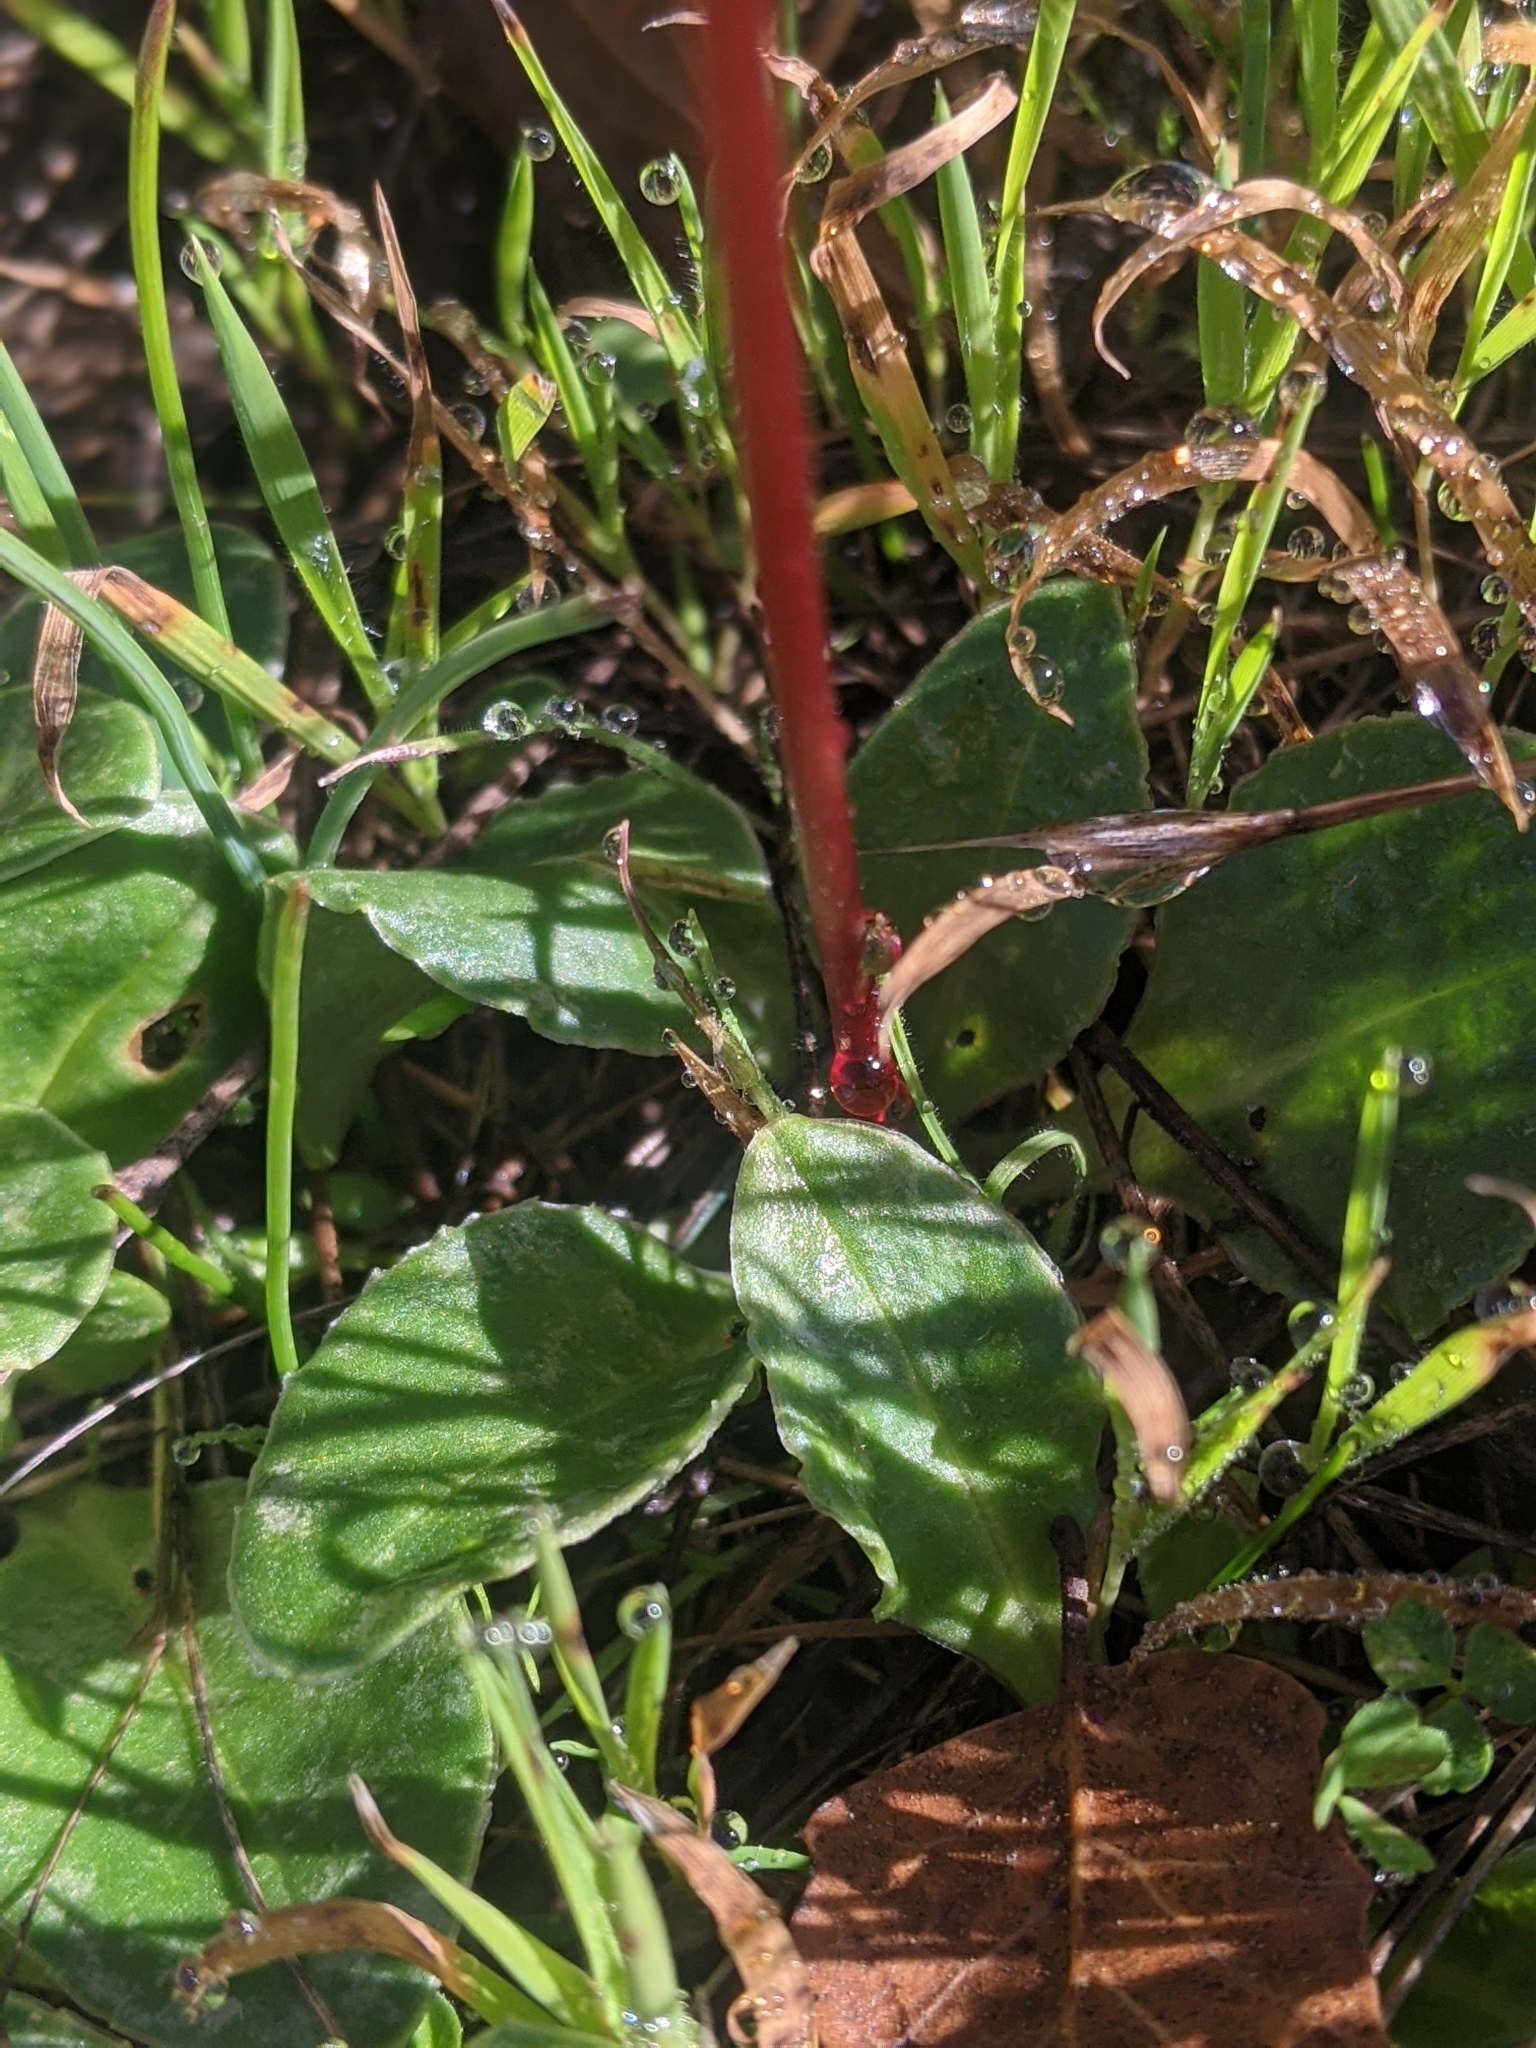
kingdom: Plantae
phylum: Tracheophyta
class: Magnoliopsida
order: Ericales
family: Primulaceae
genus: Dodecatheon
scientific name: Dodecatheon hendersonii
